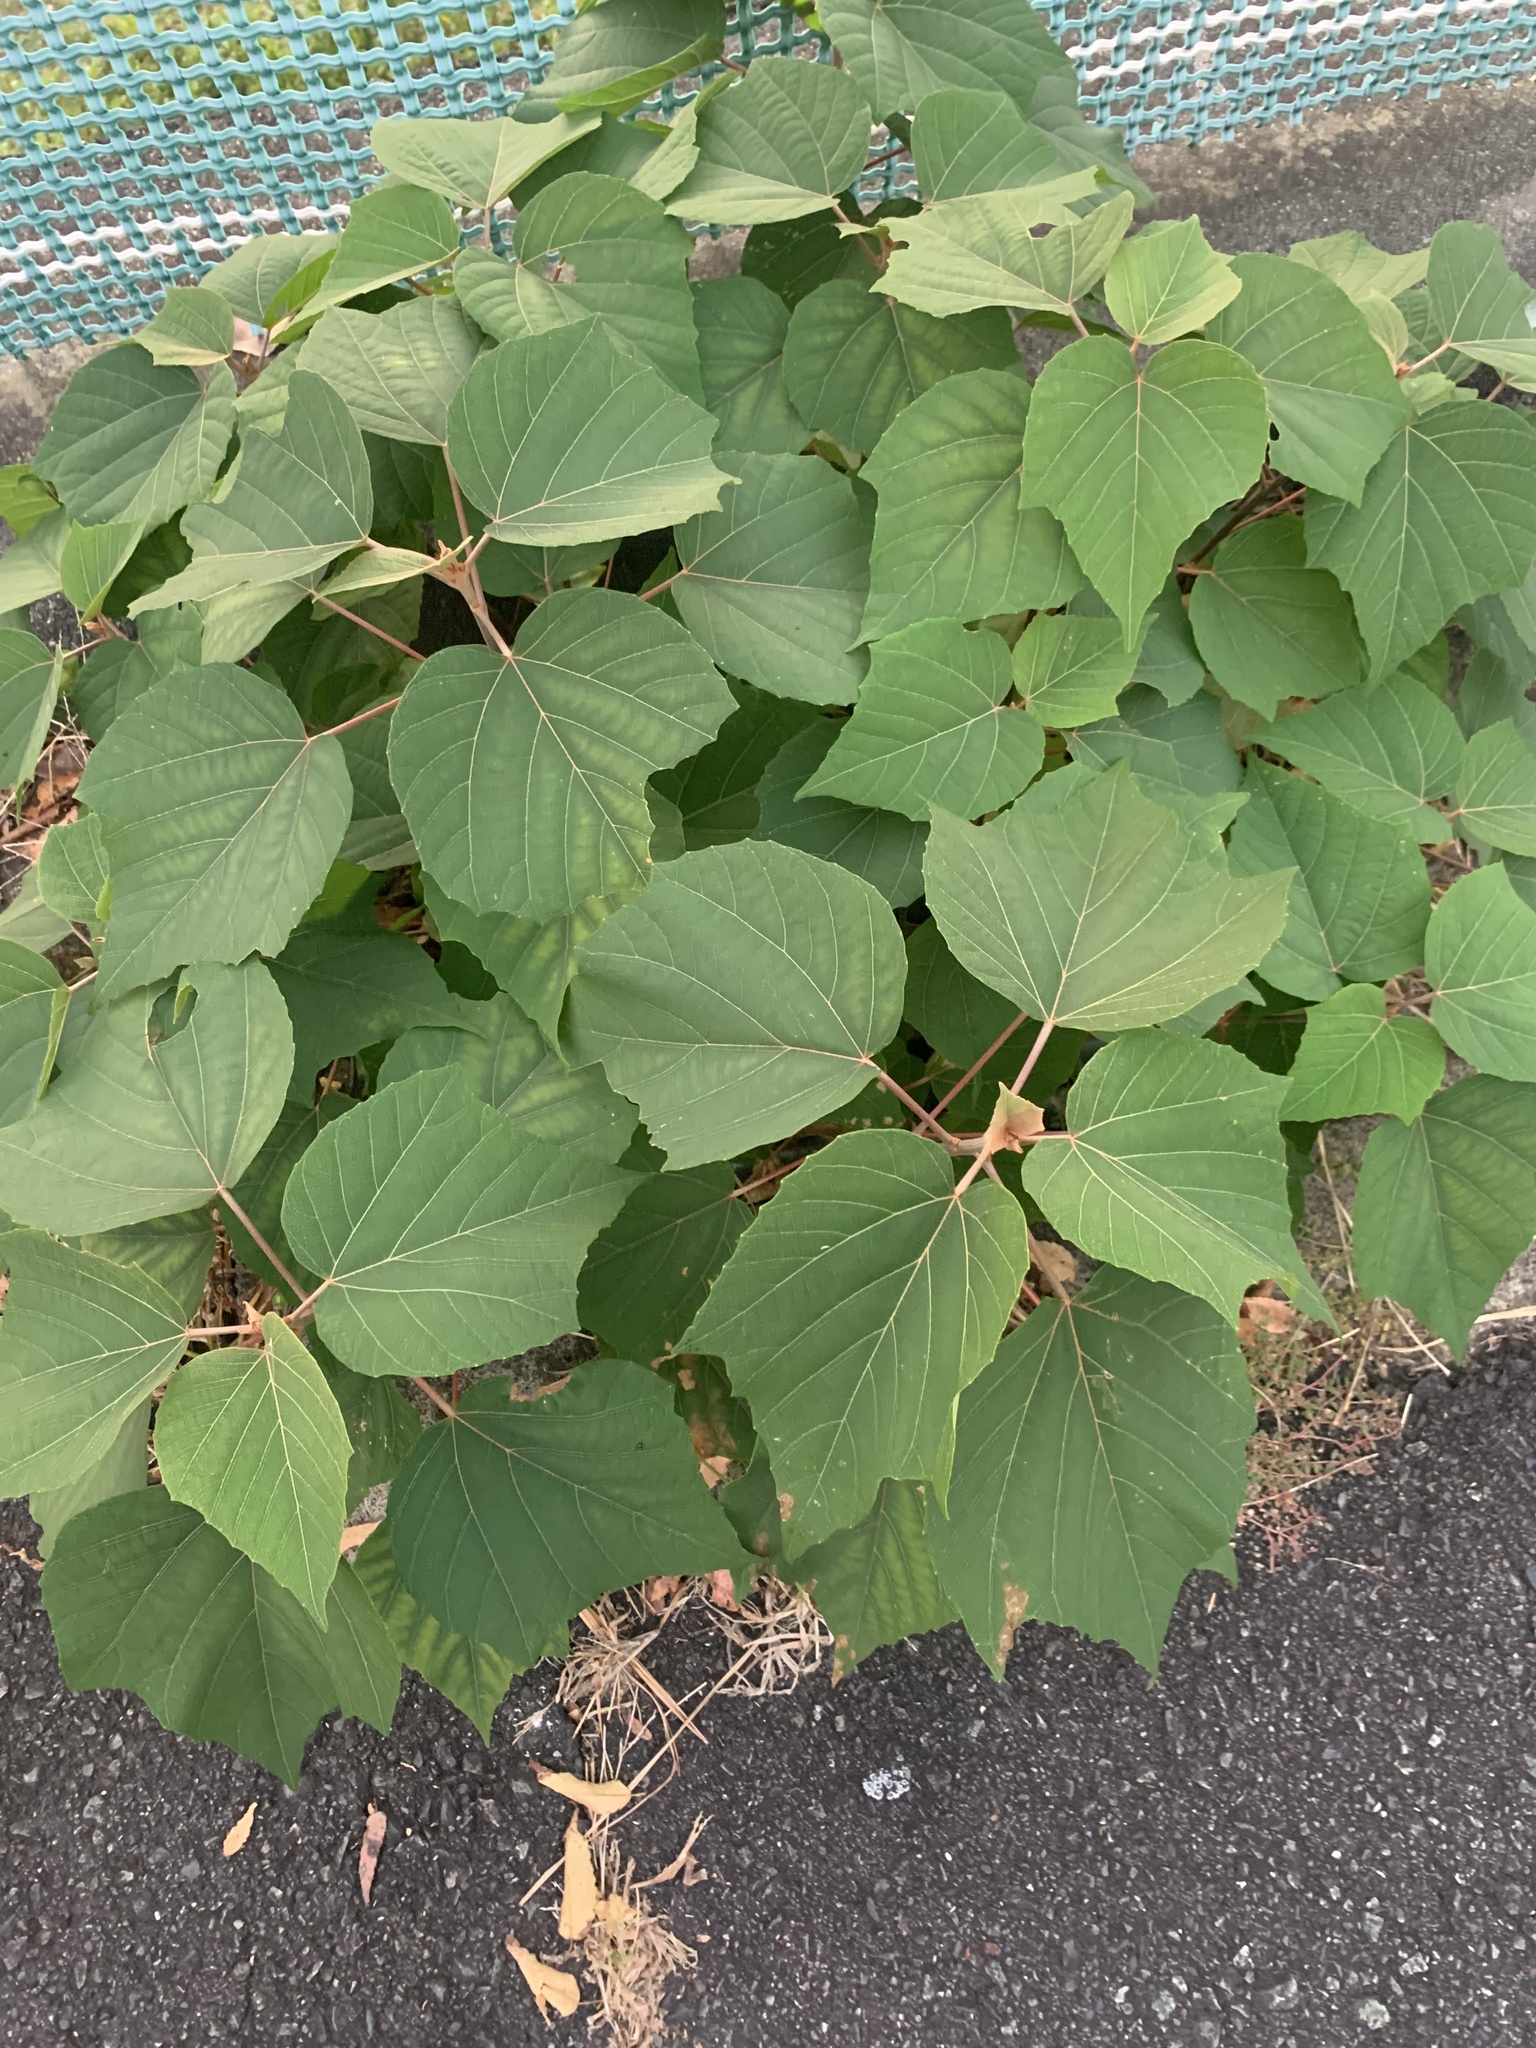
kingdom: Plantae
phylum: Tracheophyta
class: Magnoliopsida
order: Malpighiales
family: Euphorbiaceae
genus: Mallotus
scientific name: Mallotus japonicus
